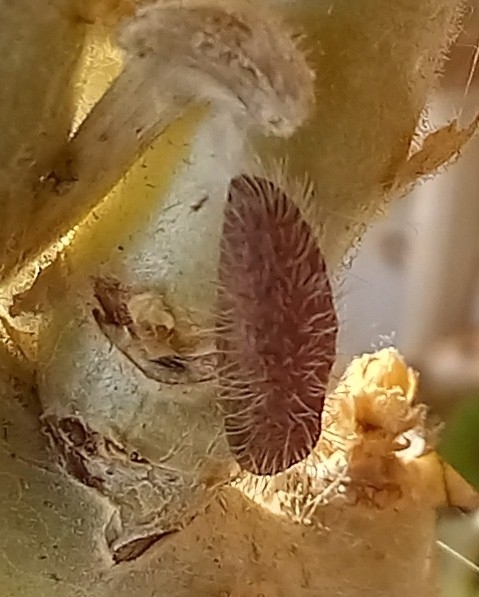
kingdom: Animalia
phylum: Arthropoda
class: Insecta
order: Lepidoptera
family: Lycaenidae
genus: Cacyreus
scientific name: Cacyreus marshalli
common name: Geranium bronze
